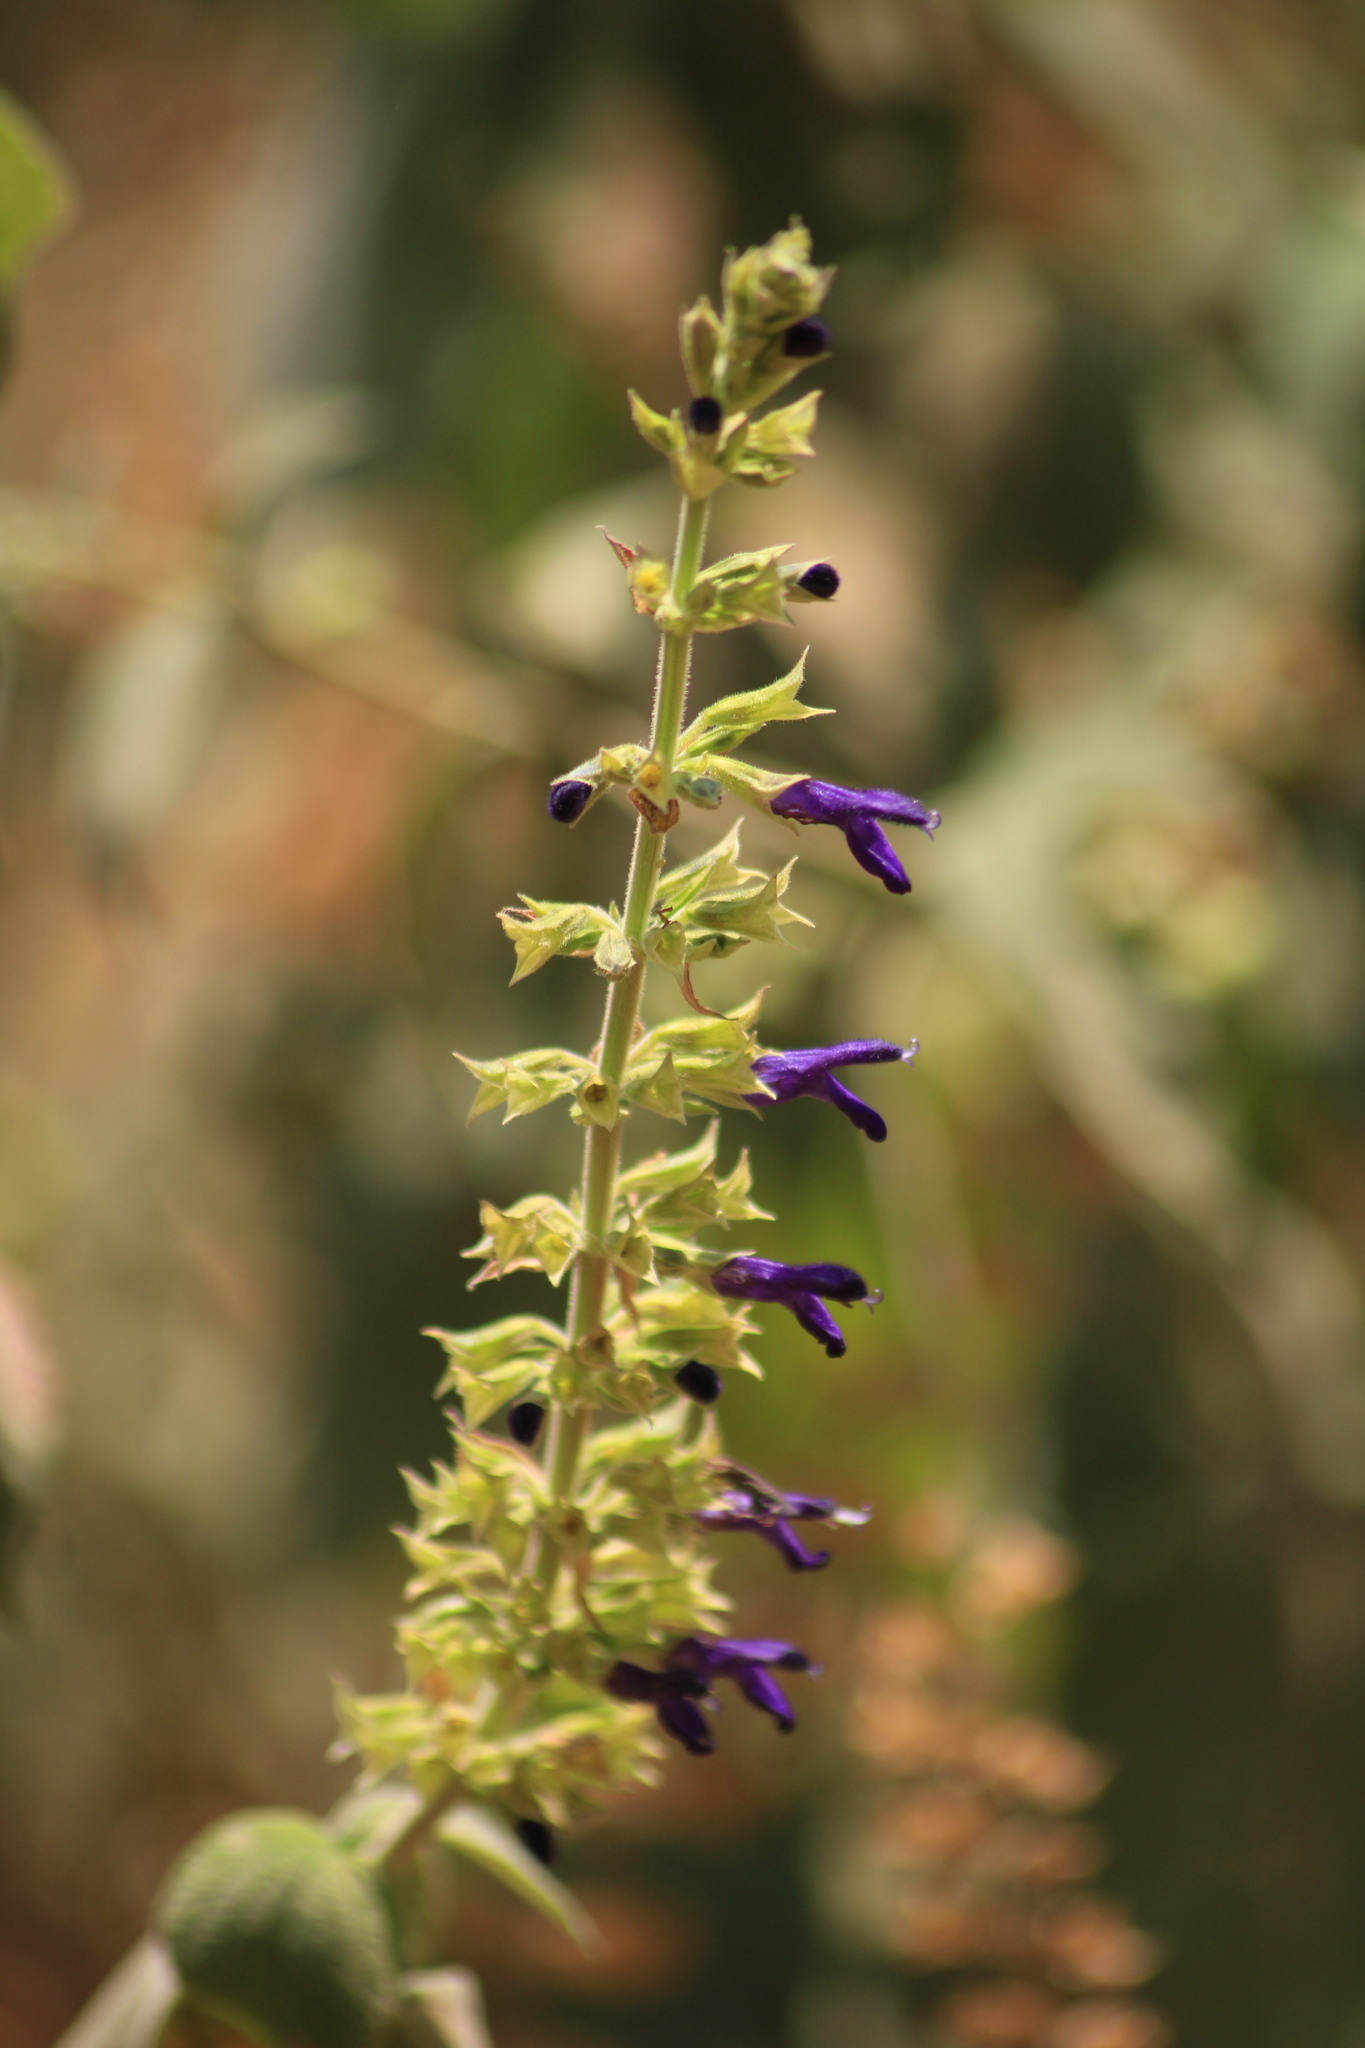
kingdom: Plantae
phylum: Tracheophyta
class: Magnoliopsida
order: Lamiales
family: Lamiaceae
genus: Salvia
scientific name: Salvia mexicana
